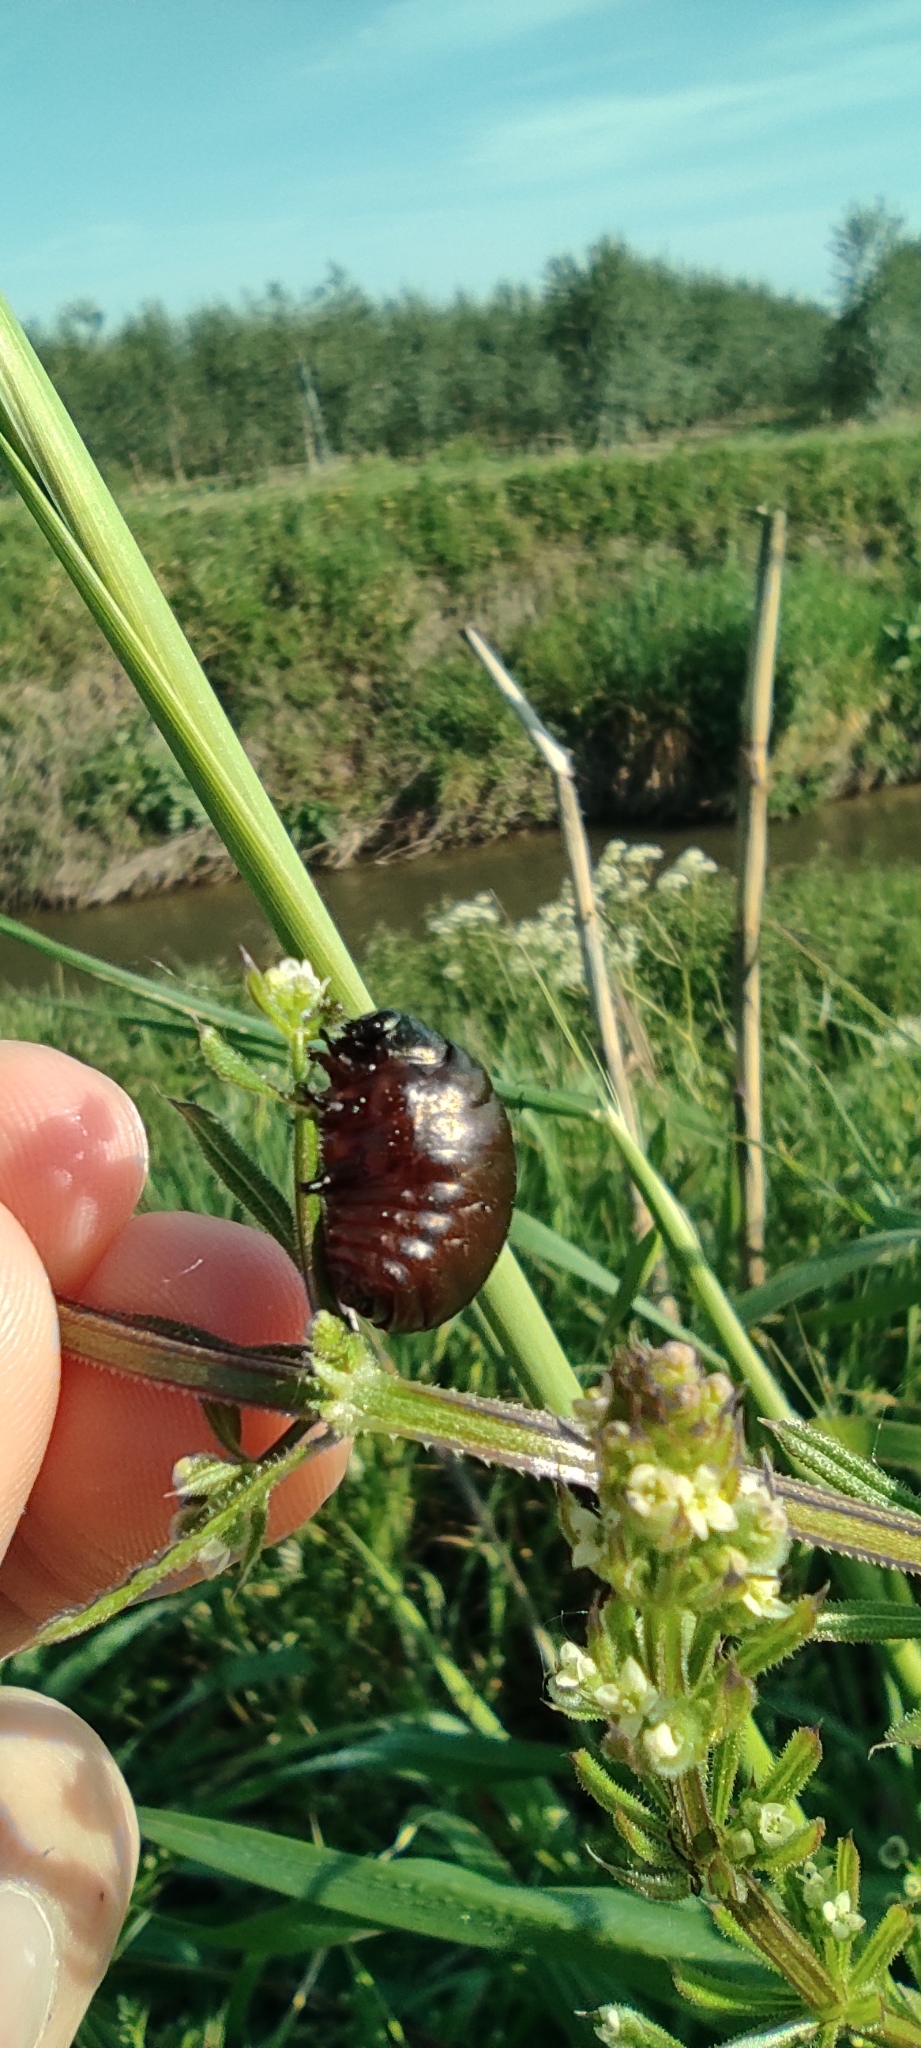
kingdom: Animalia
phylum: Arthropoda
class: Insecta
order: Coleoptera
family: Chrysomelidae
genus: Timarcha
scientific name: Timarcha tenebricosa
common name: Bloody-nosed beetle
